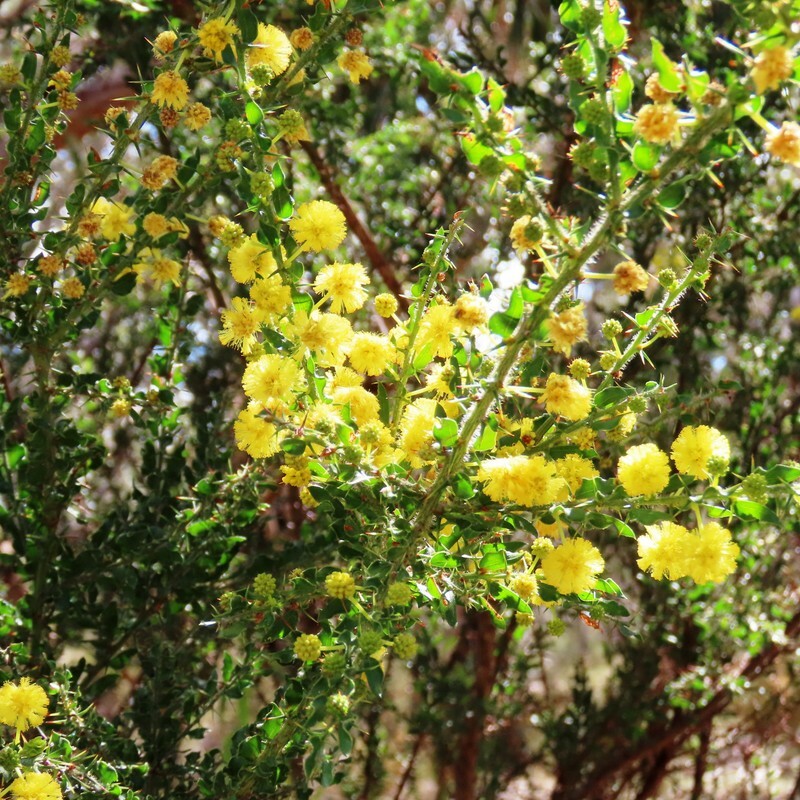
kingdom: Plantae
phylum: Tracheophyta
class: Magnoliopsida
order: Fabales
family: Fabaceae
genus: Acacia
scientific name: Acacia paradoxa
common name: Paradox acacia
